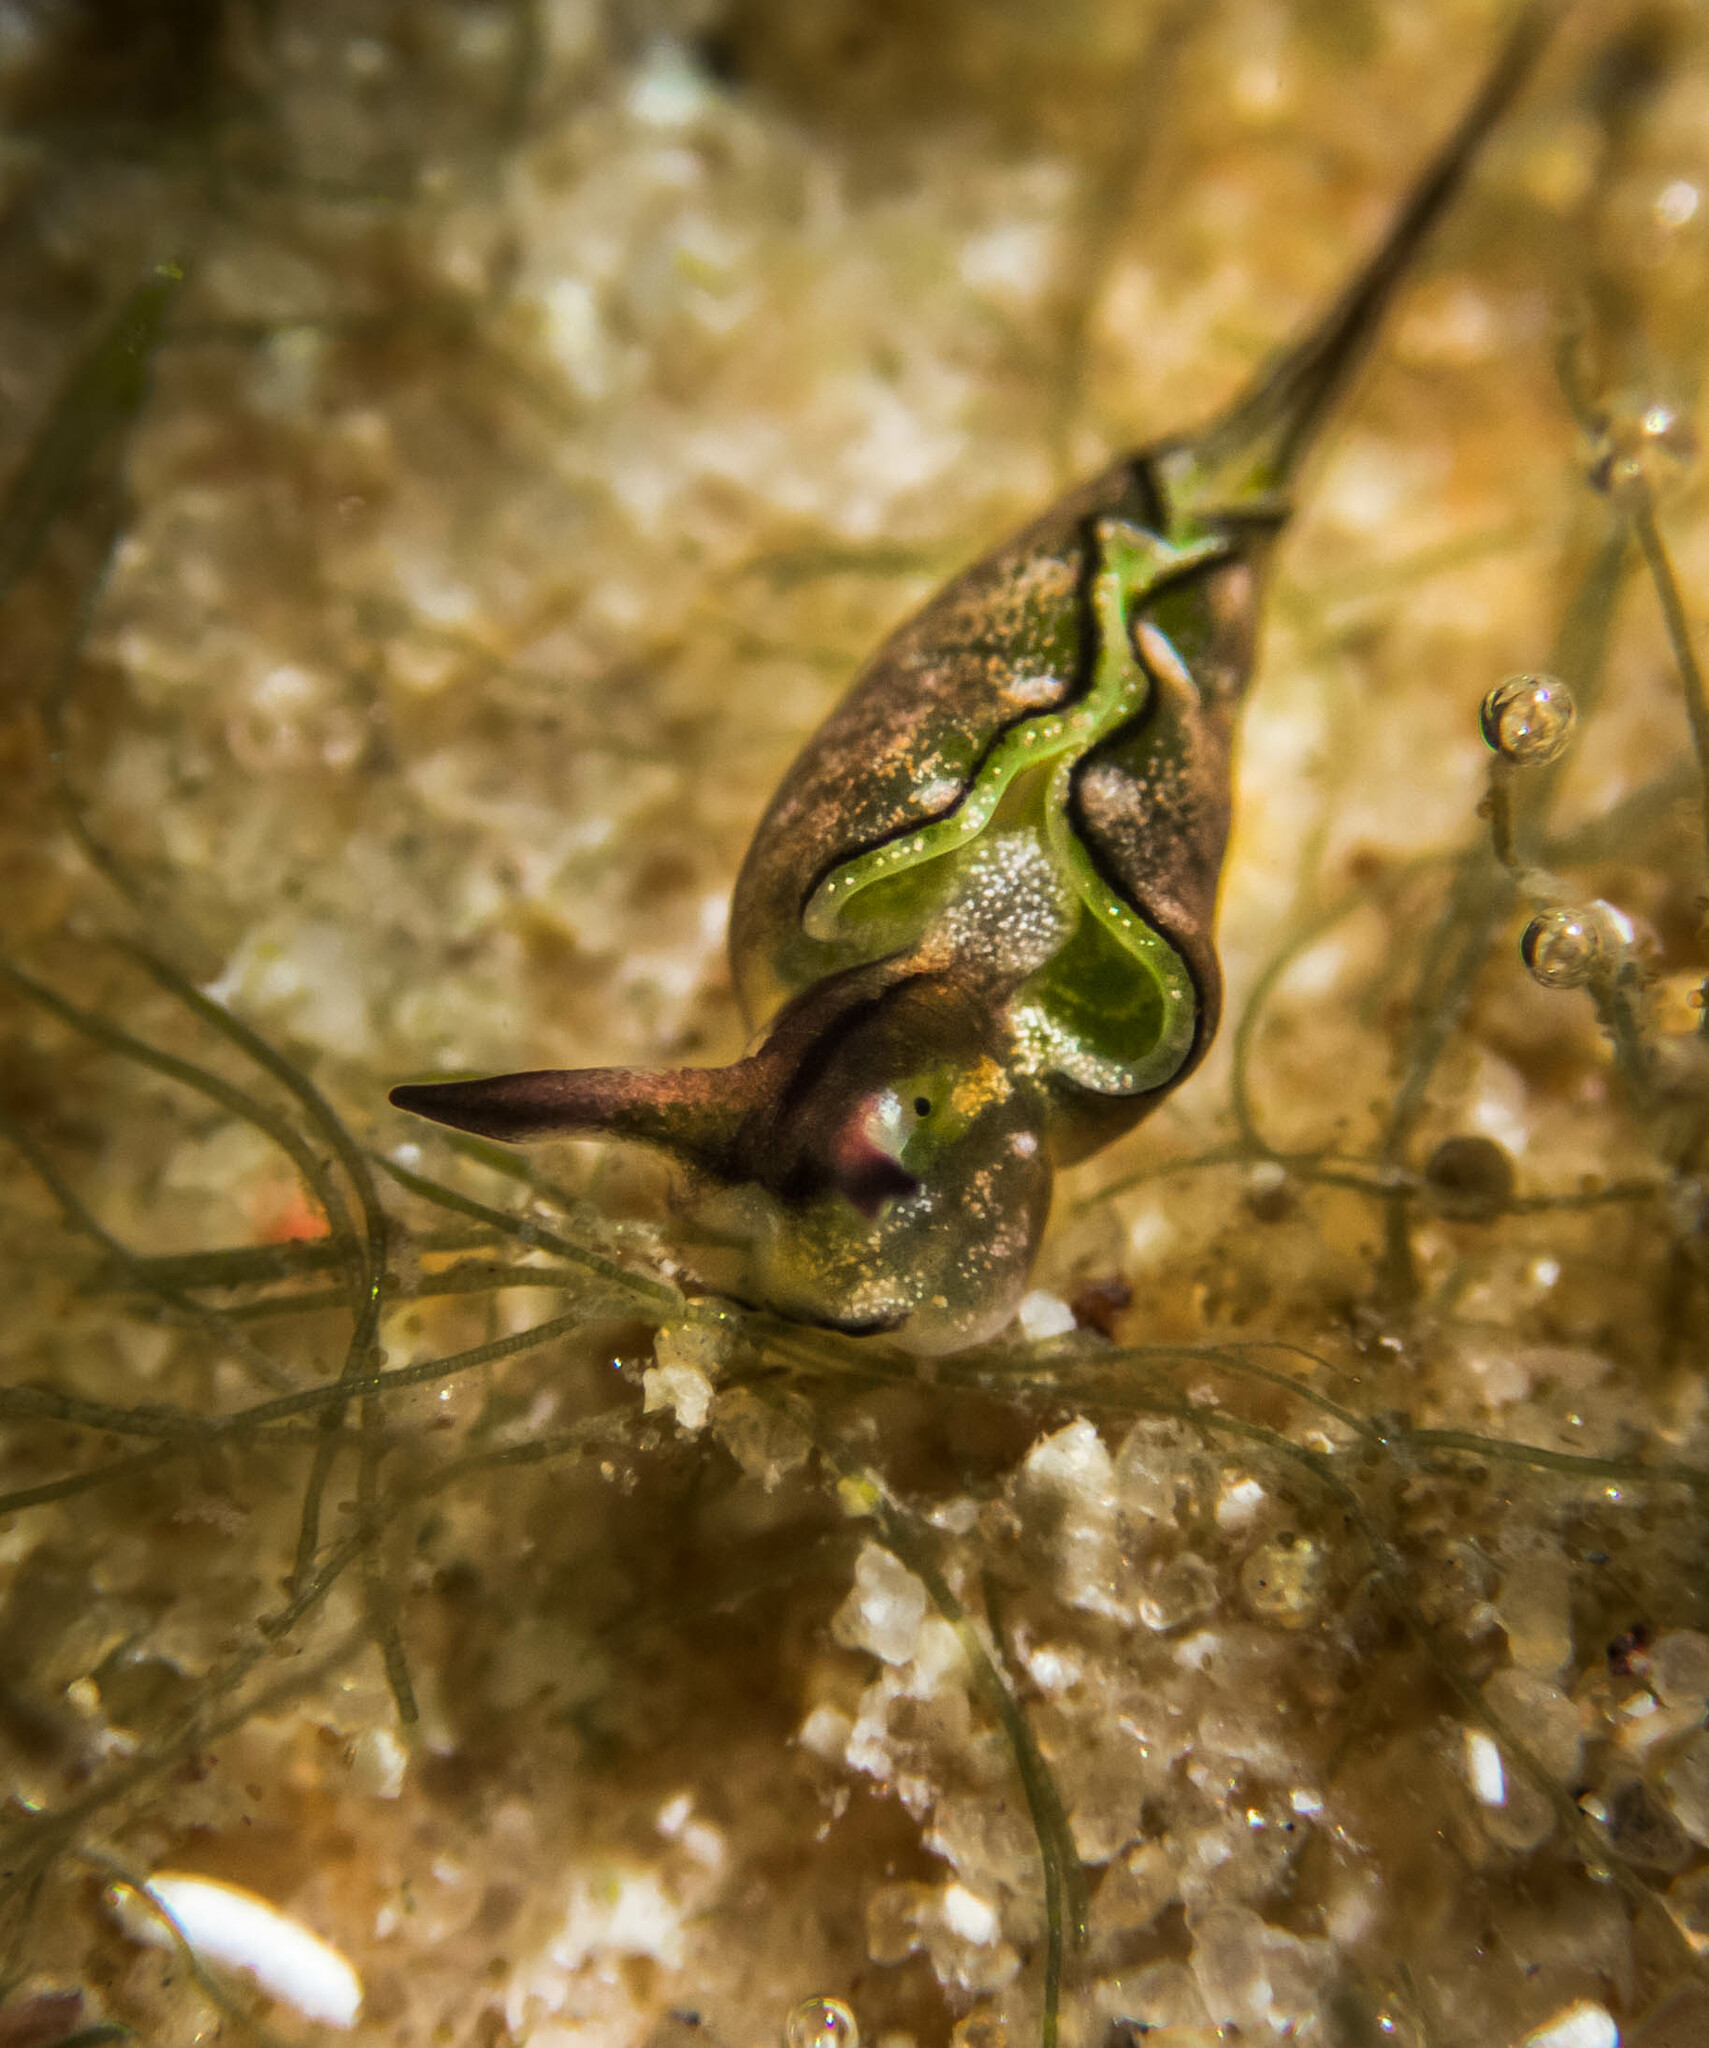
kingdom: Animalia
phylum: Mollusca
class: Gastropoda
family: Plakobranchidae
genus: Elysia
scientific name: Elysia coodgeensis
